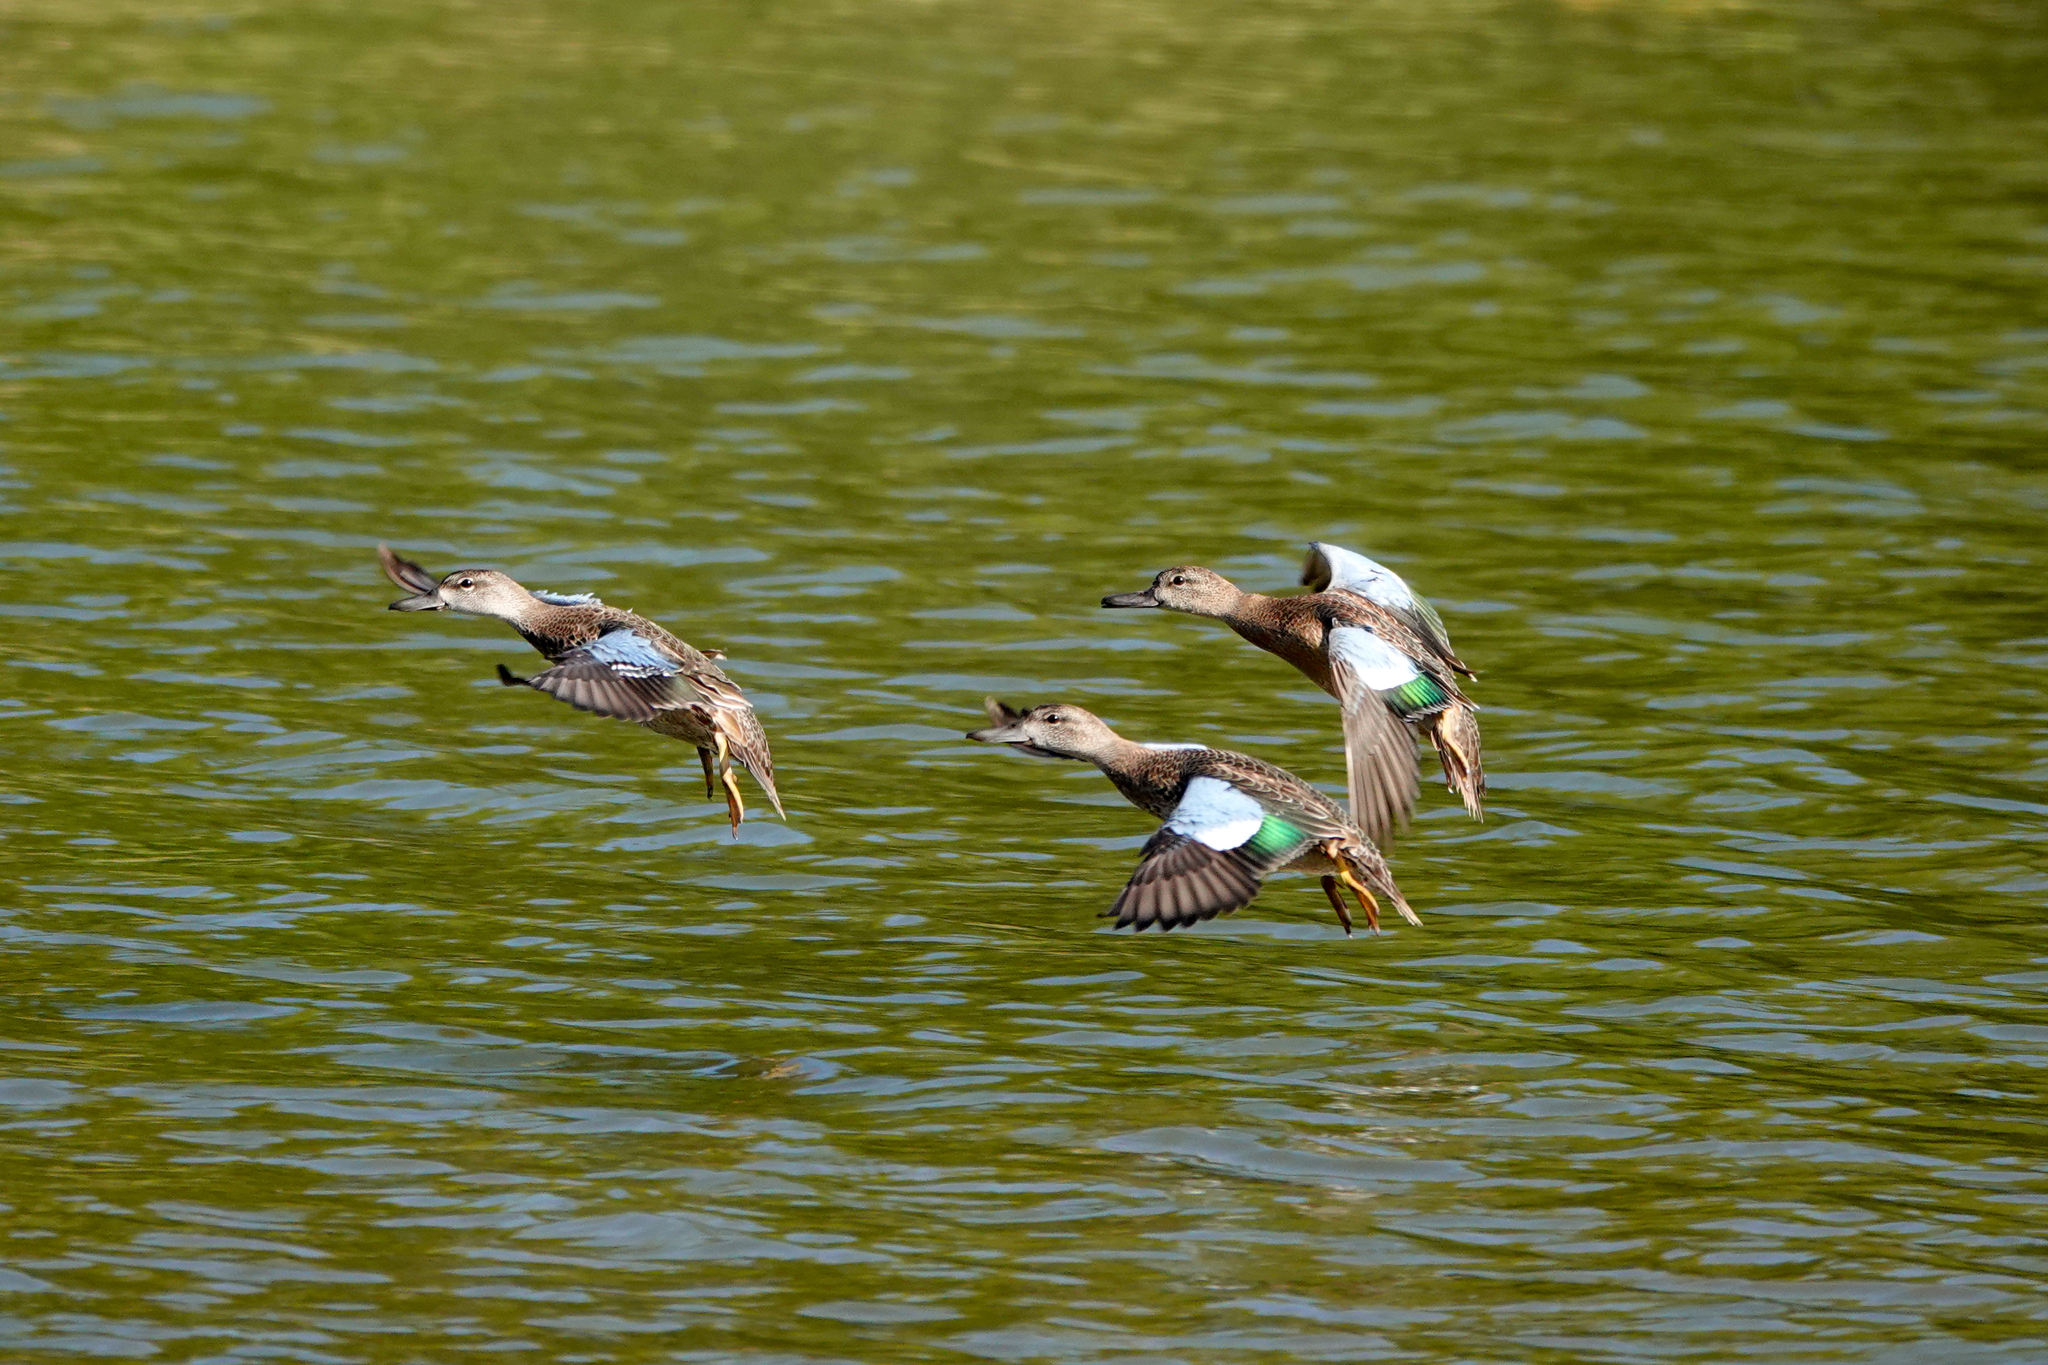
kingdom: Animalia
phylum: Chordata
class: Aves
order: Anseriformes
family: Anatidae
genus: Spatula
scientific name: Spatula discors
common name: Blue-winged teal
